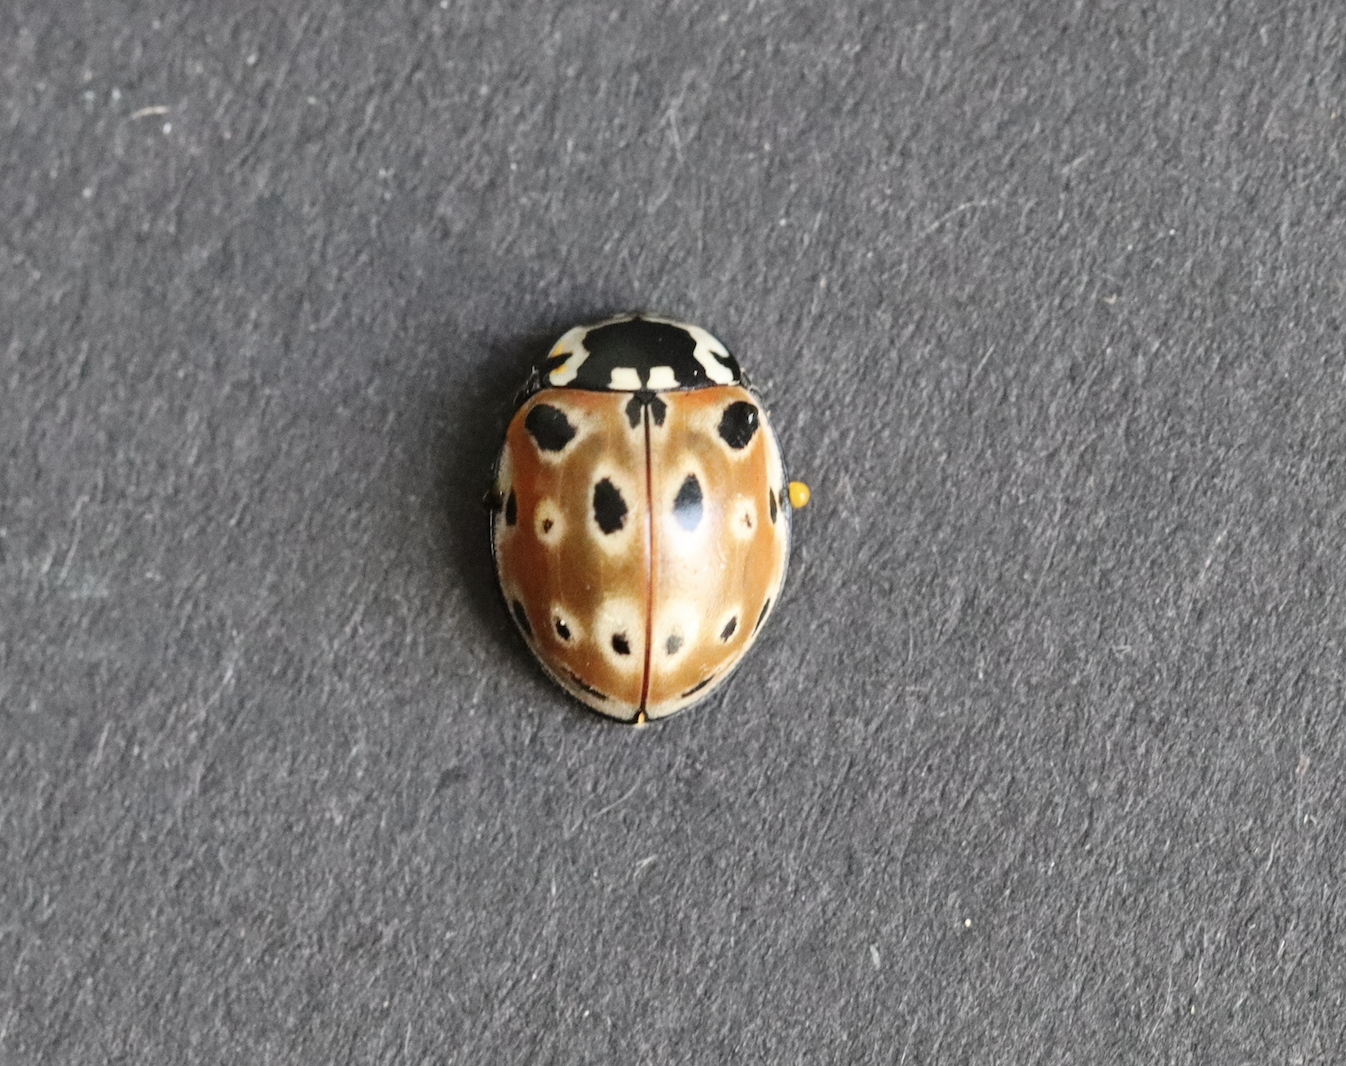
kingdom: Animalia
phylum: Arthropoda
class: Insecta
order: Coleoptera
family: Coccinellidae
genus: Anatis
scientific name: Anatis ocellata
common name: Eyed ladybird
